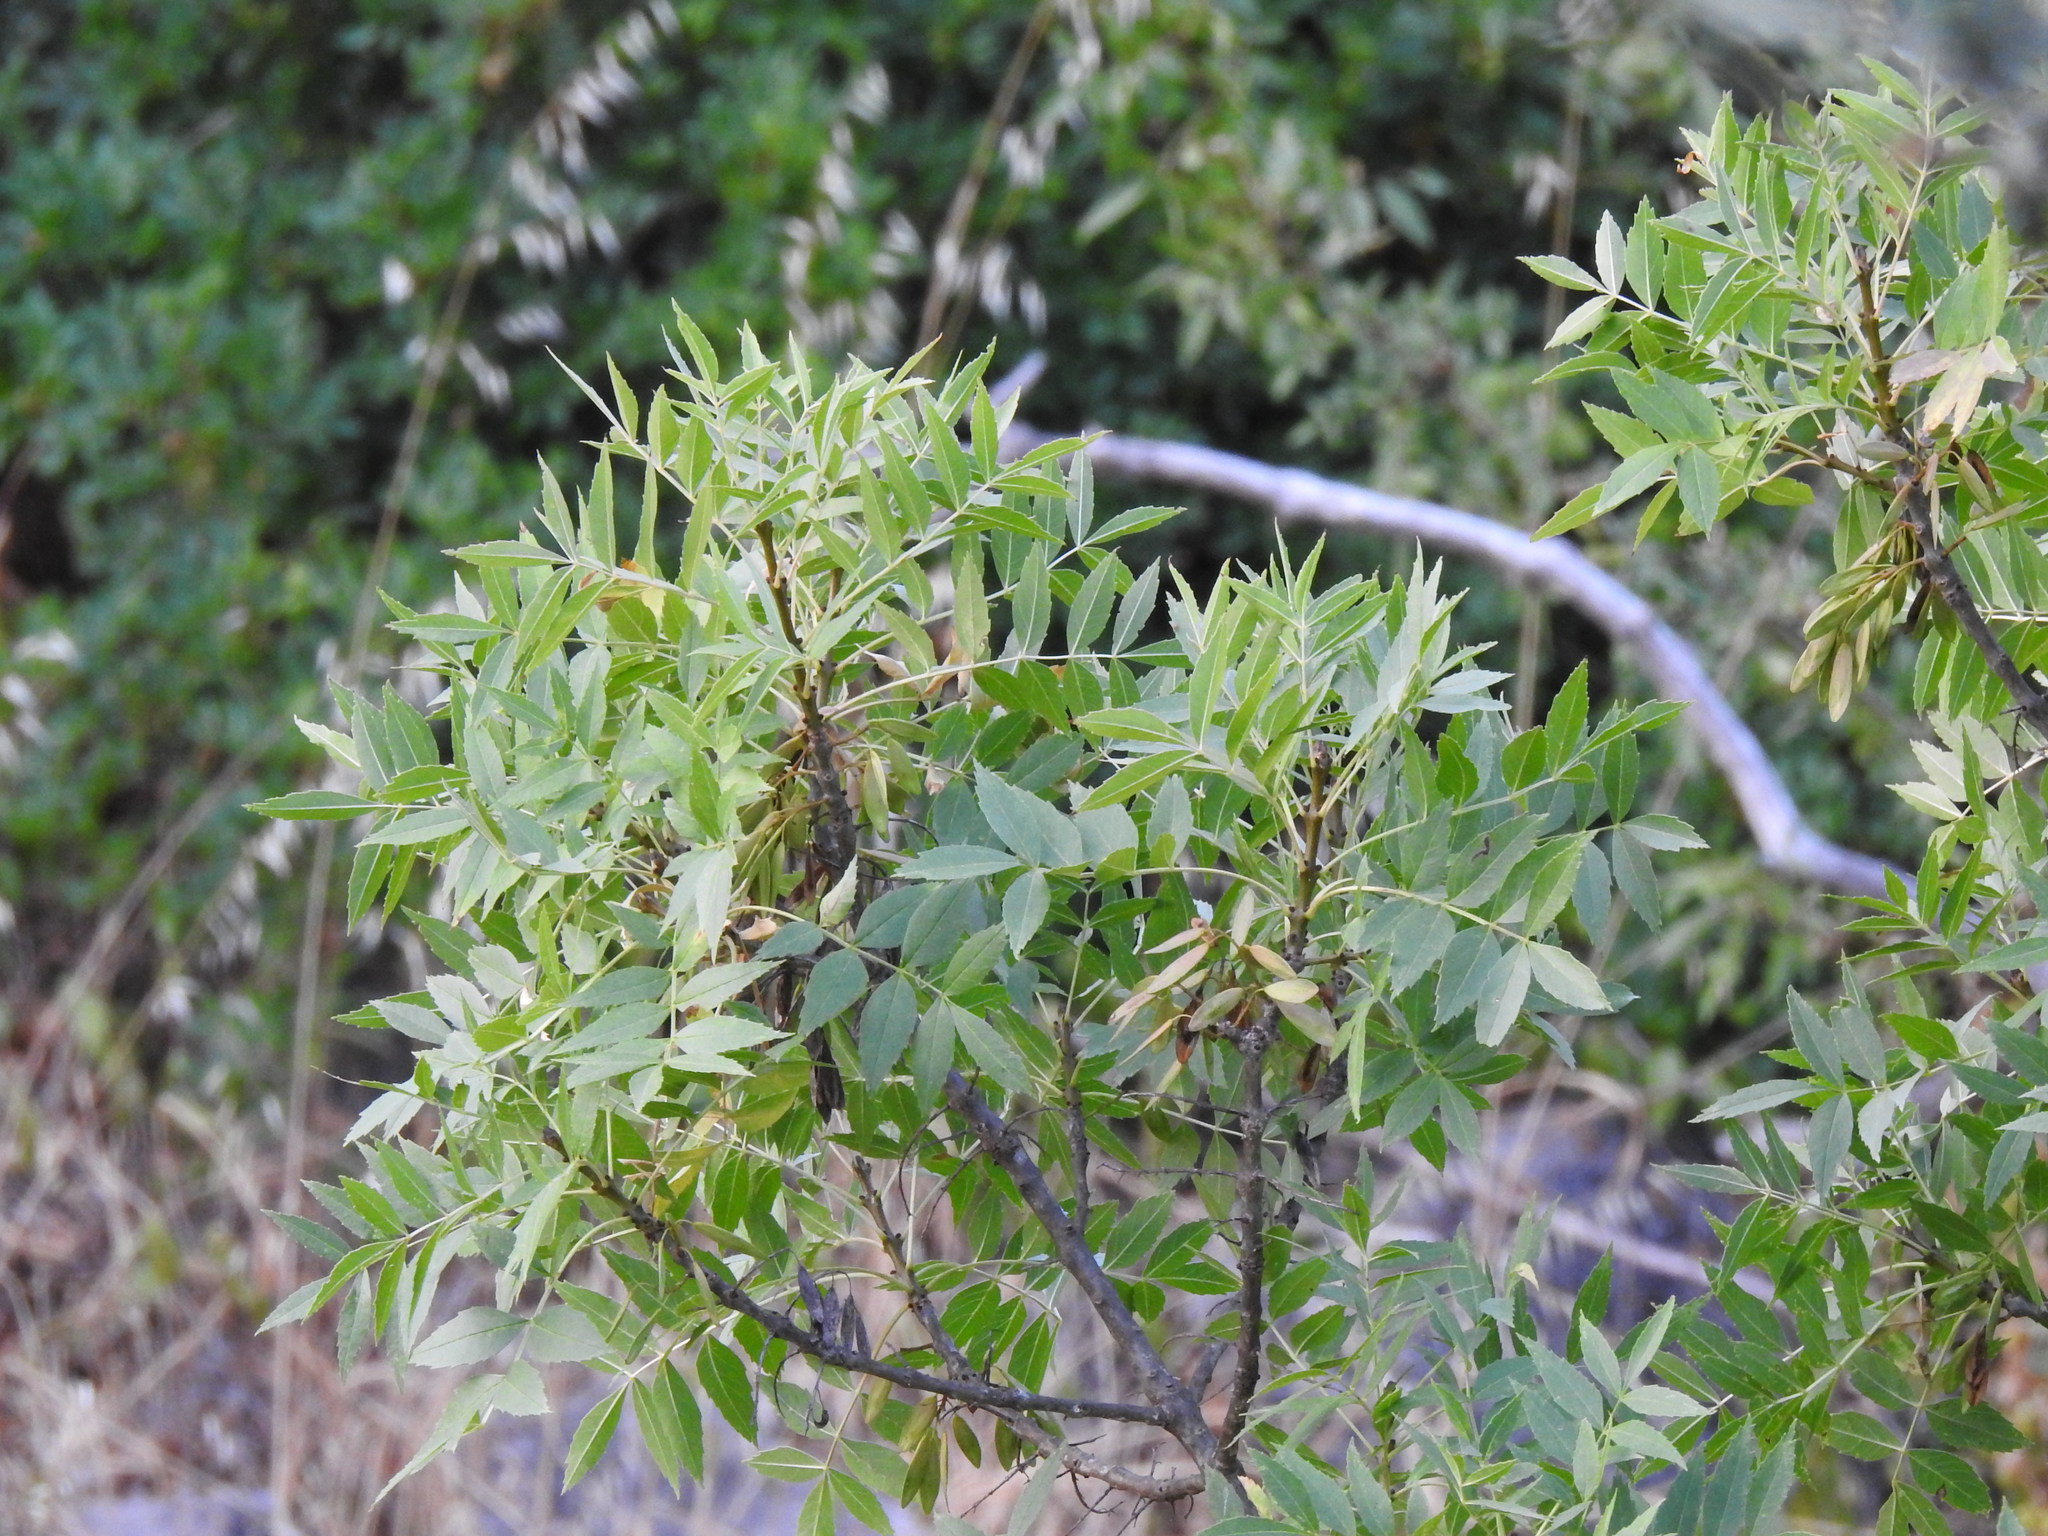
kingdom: Plantae
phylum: Tracheophyta
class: Magnoliopsida
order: Lamiales
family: Oleaceae
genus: Fraxinus
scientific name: Fraxinus angustifolia
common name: Narrow-leafed ash
